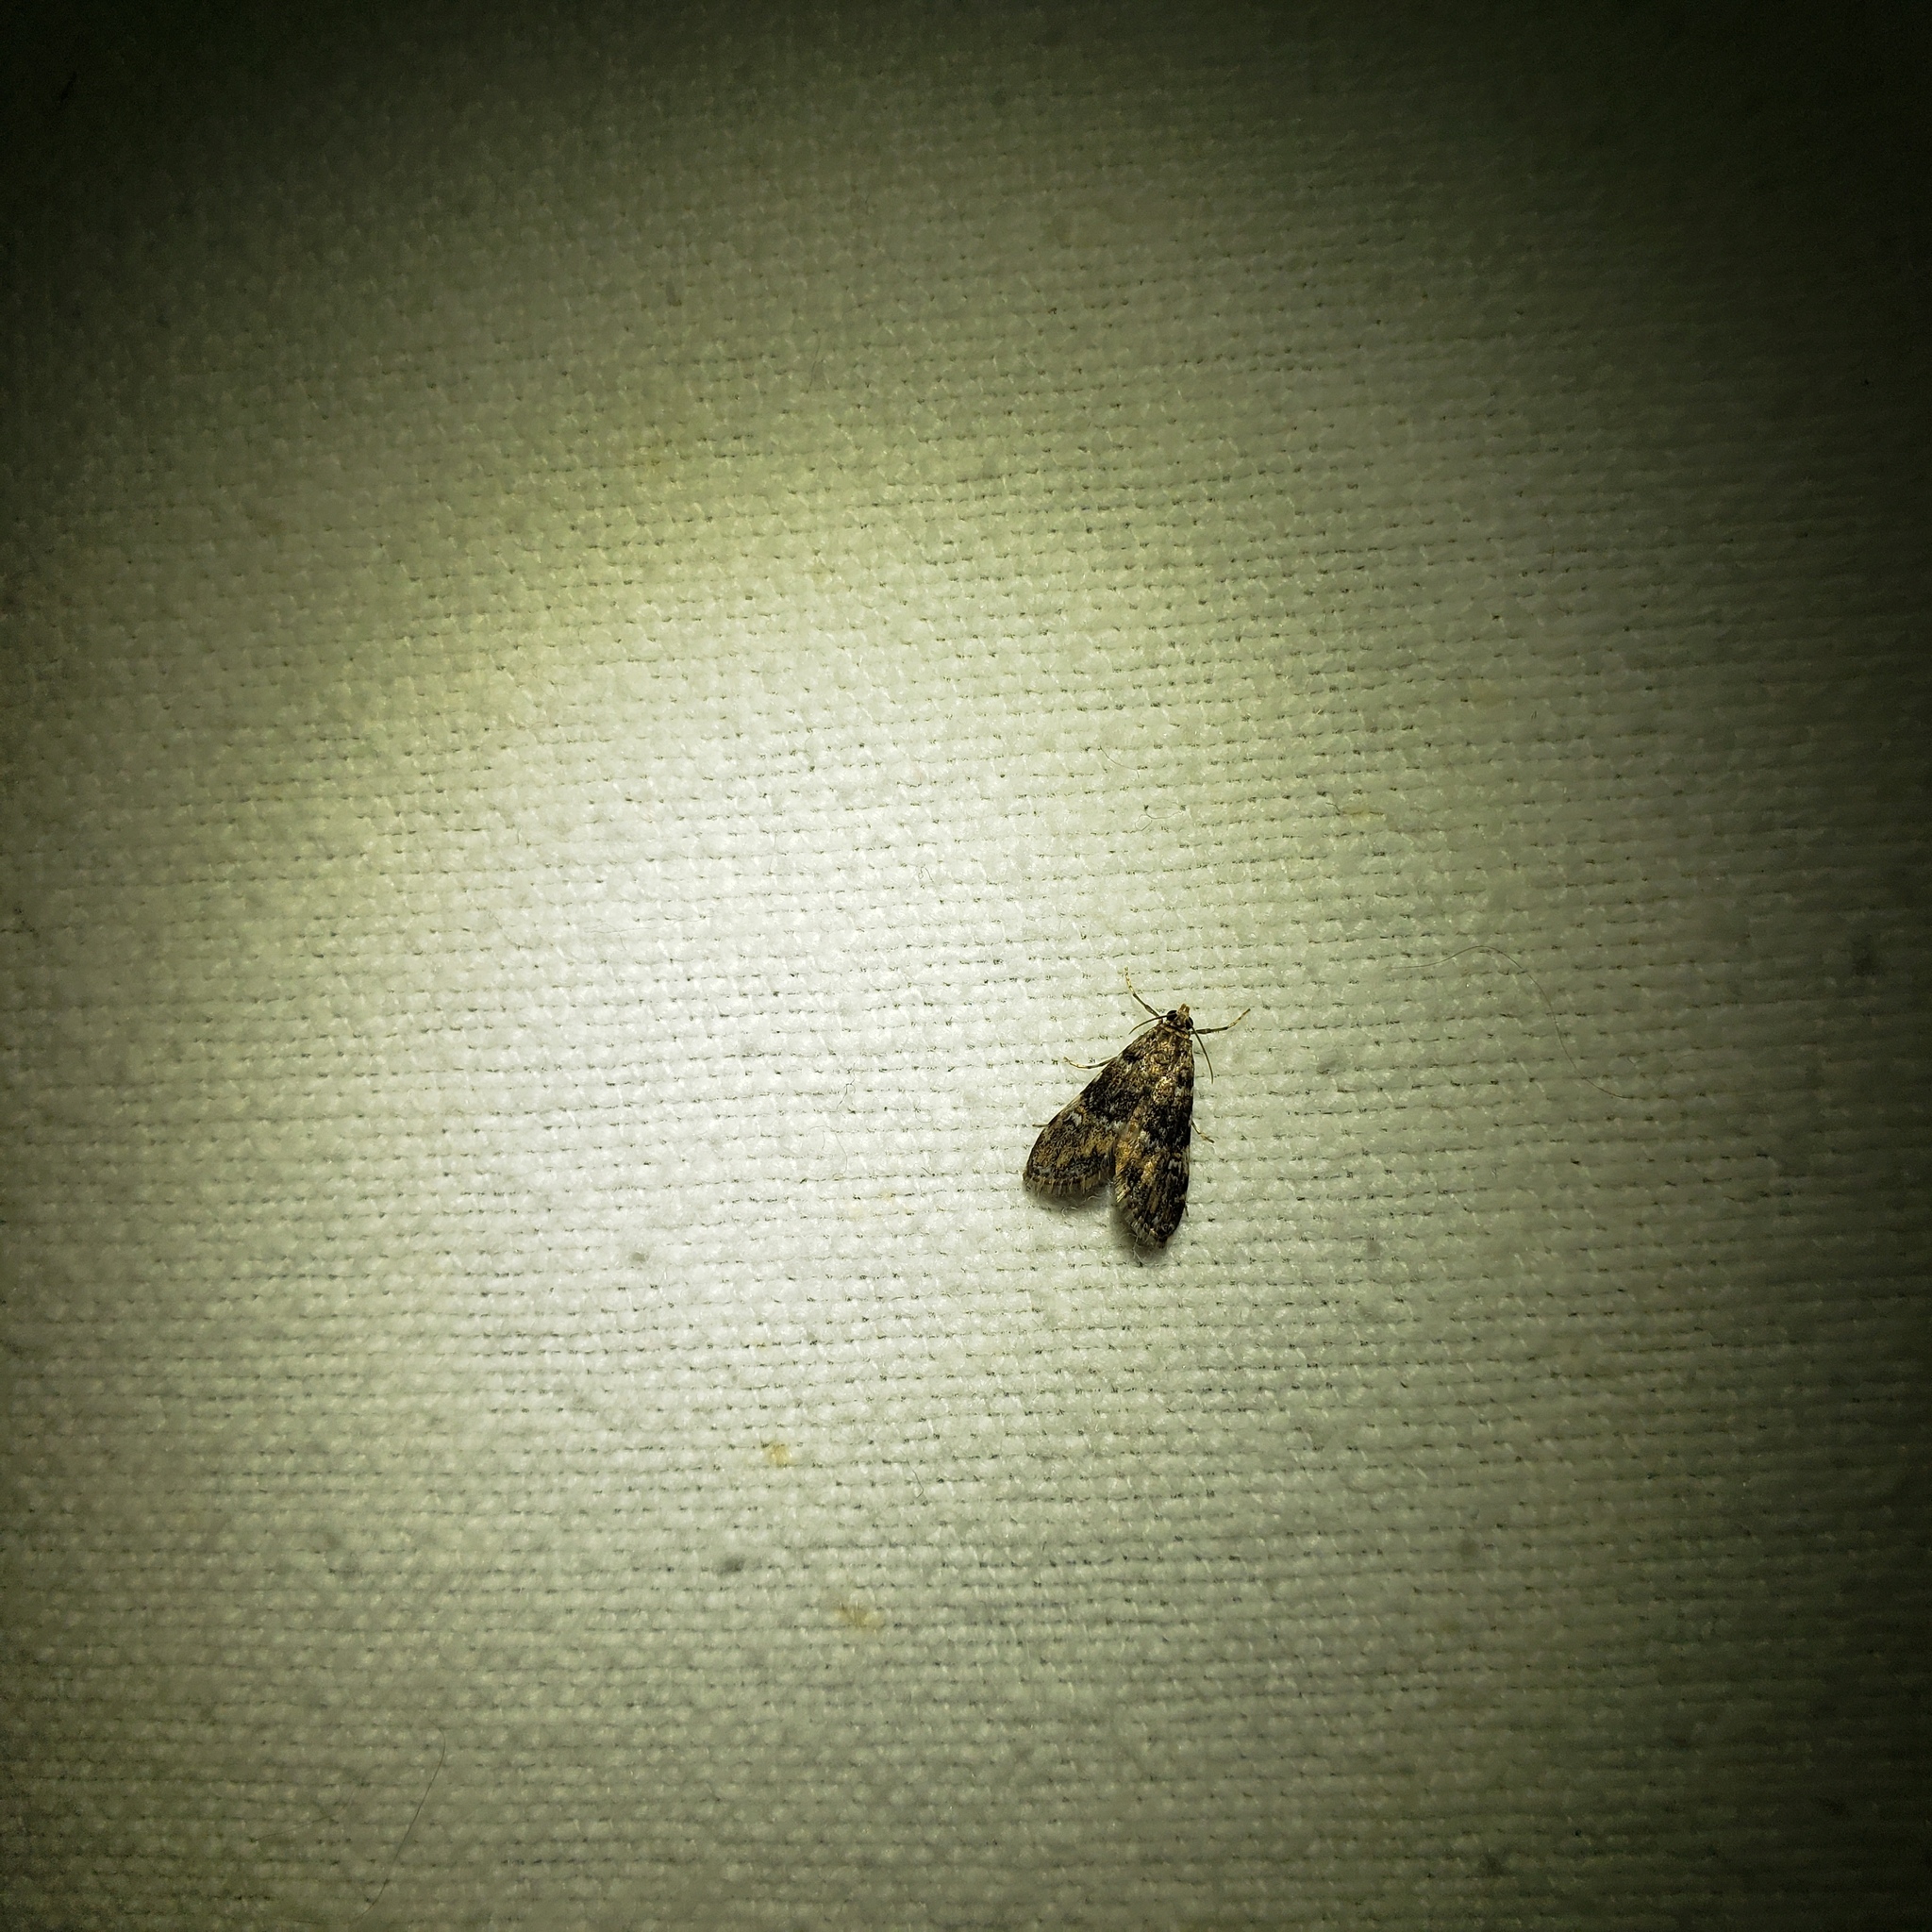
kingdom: Animalia
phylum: Arthropoda
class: Insecta
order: Lepidoptera
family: Crambidae
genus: Elophila
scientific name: Elophila obliteralis
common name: Waterlily leafcutter moth
